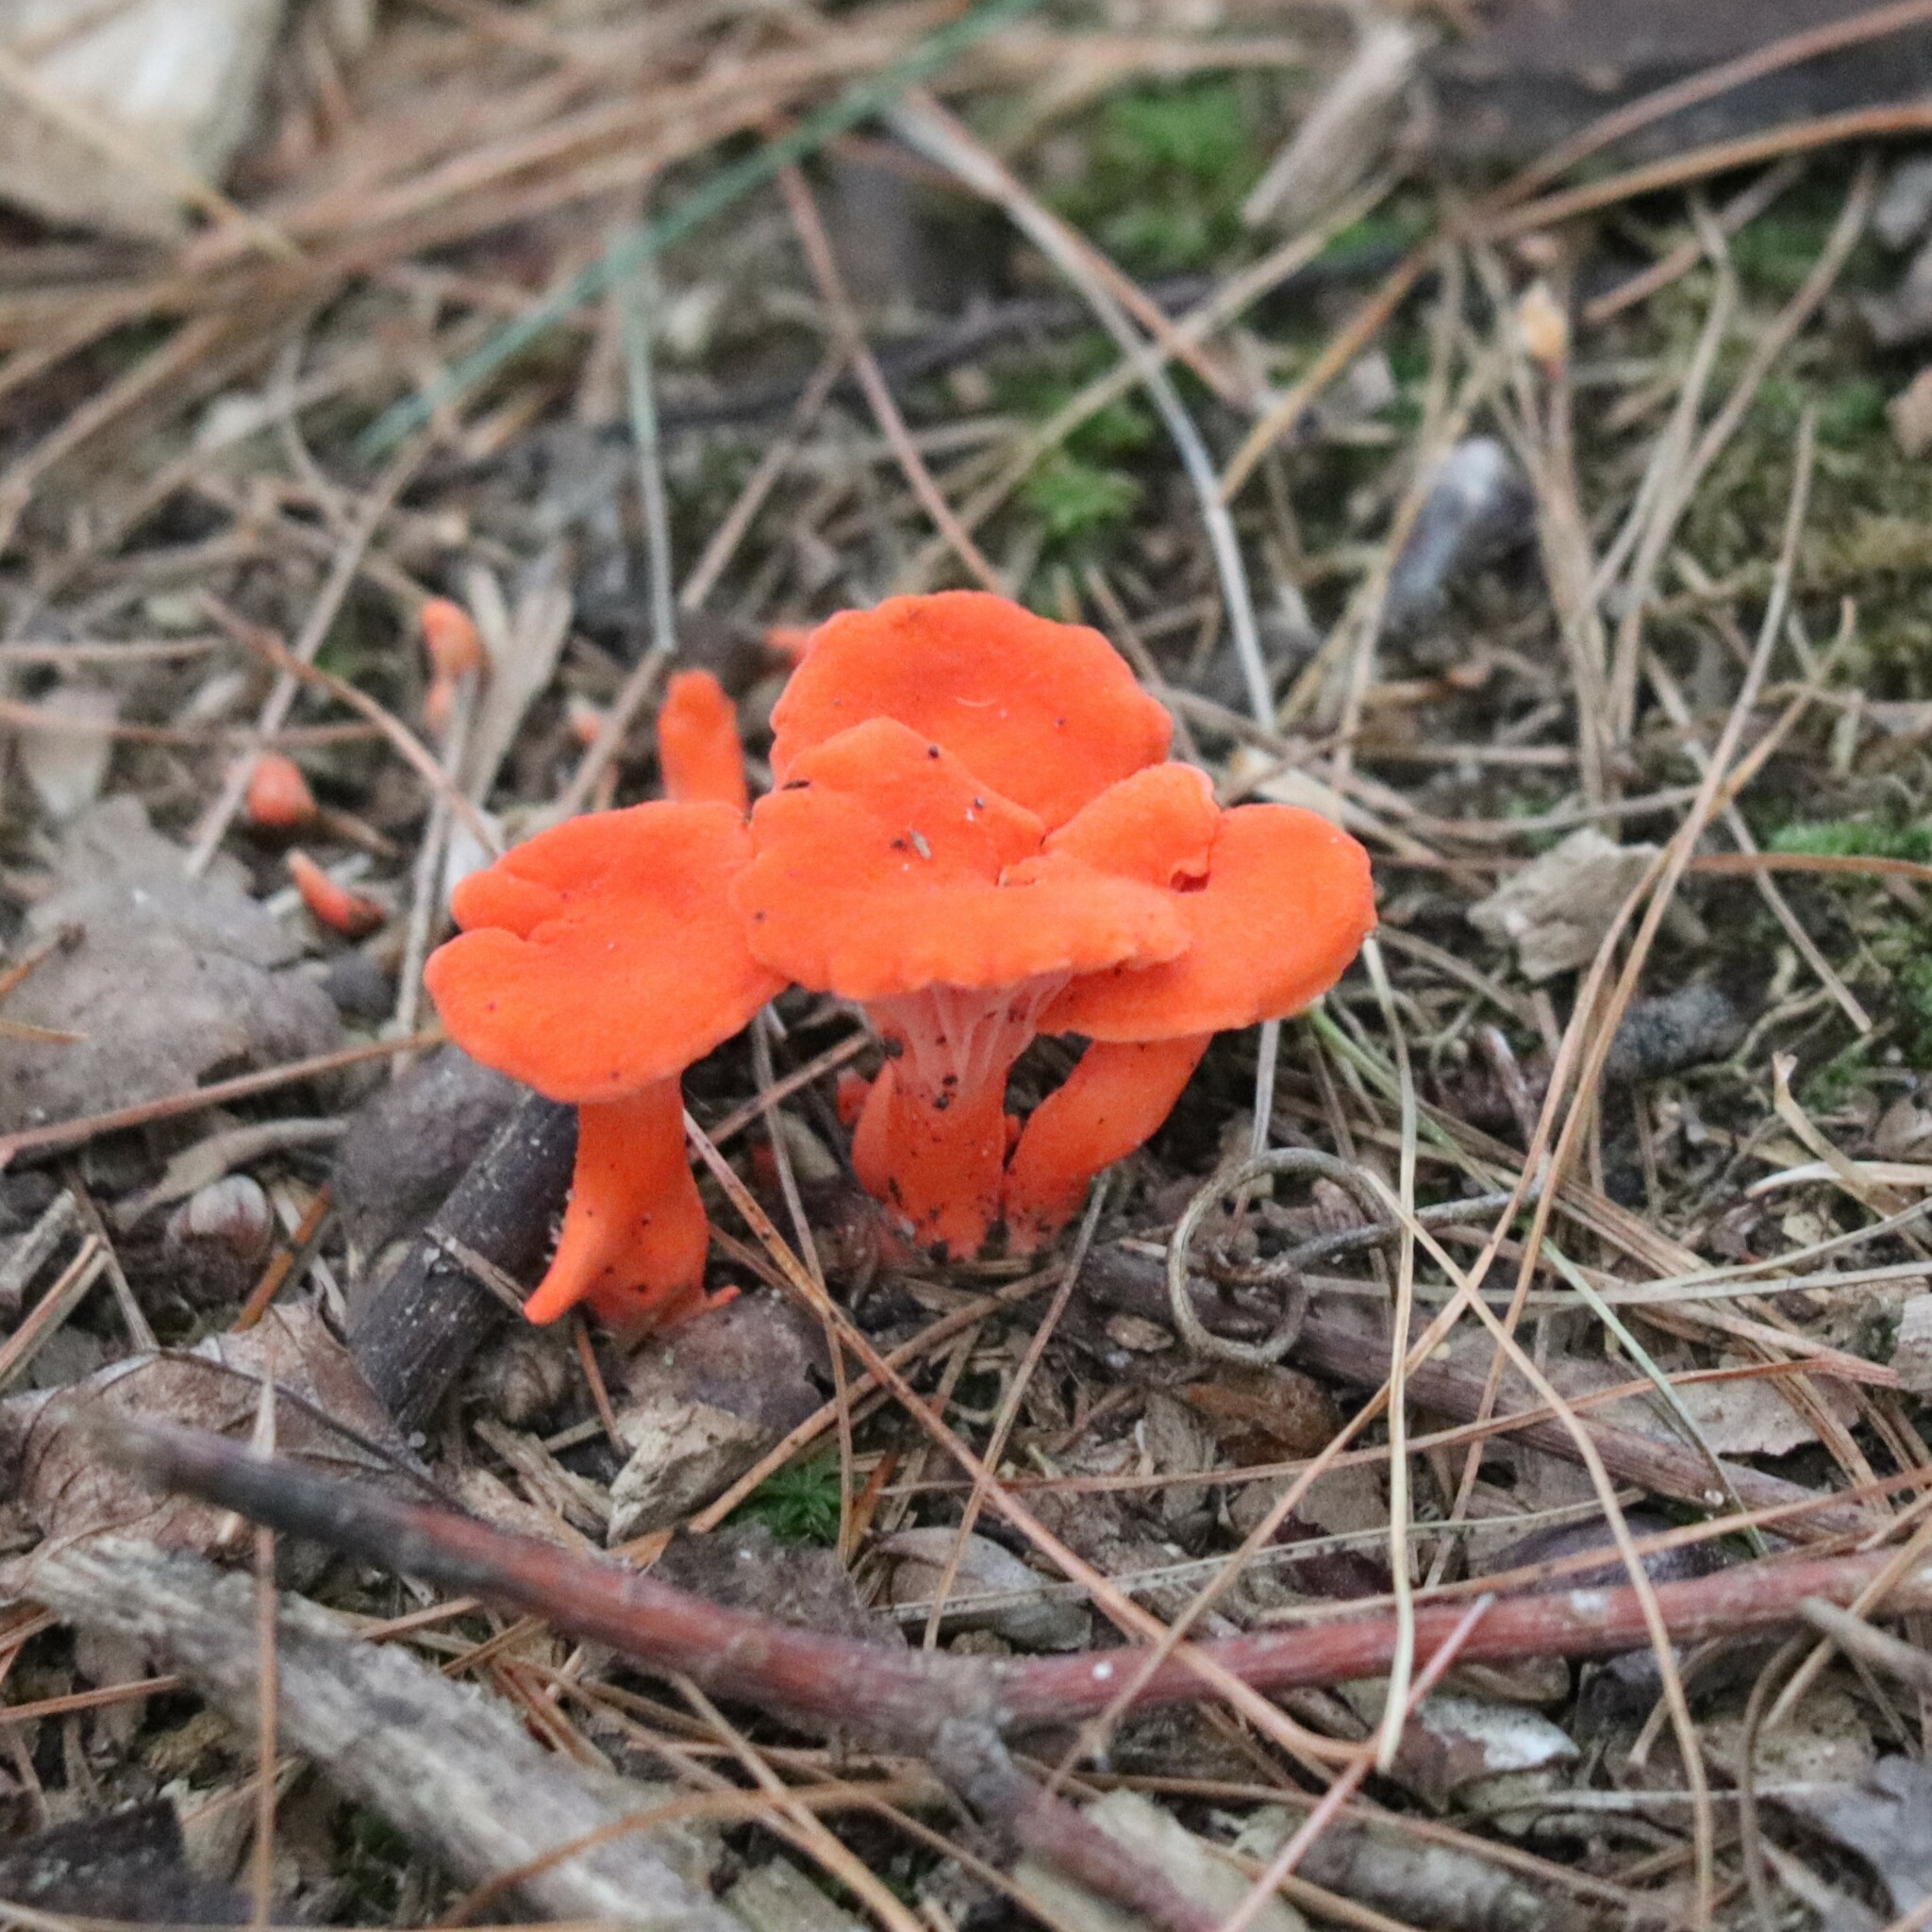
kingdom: Fungi
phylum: Basidiomycota
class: Agaricomycetes
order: Cantharellales
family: Hydnaceae
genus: Cantharellus
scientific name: Cantharellus cinnabarinus
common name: Cinnabar chanterelle
